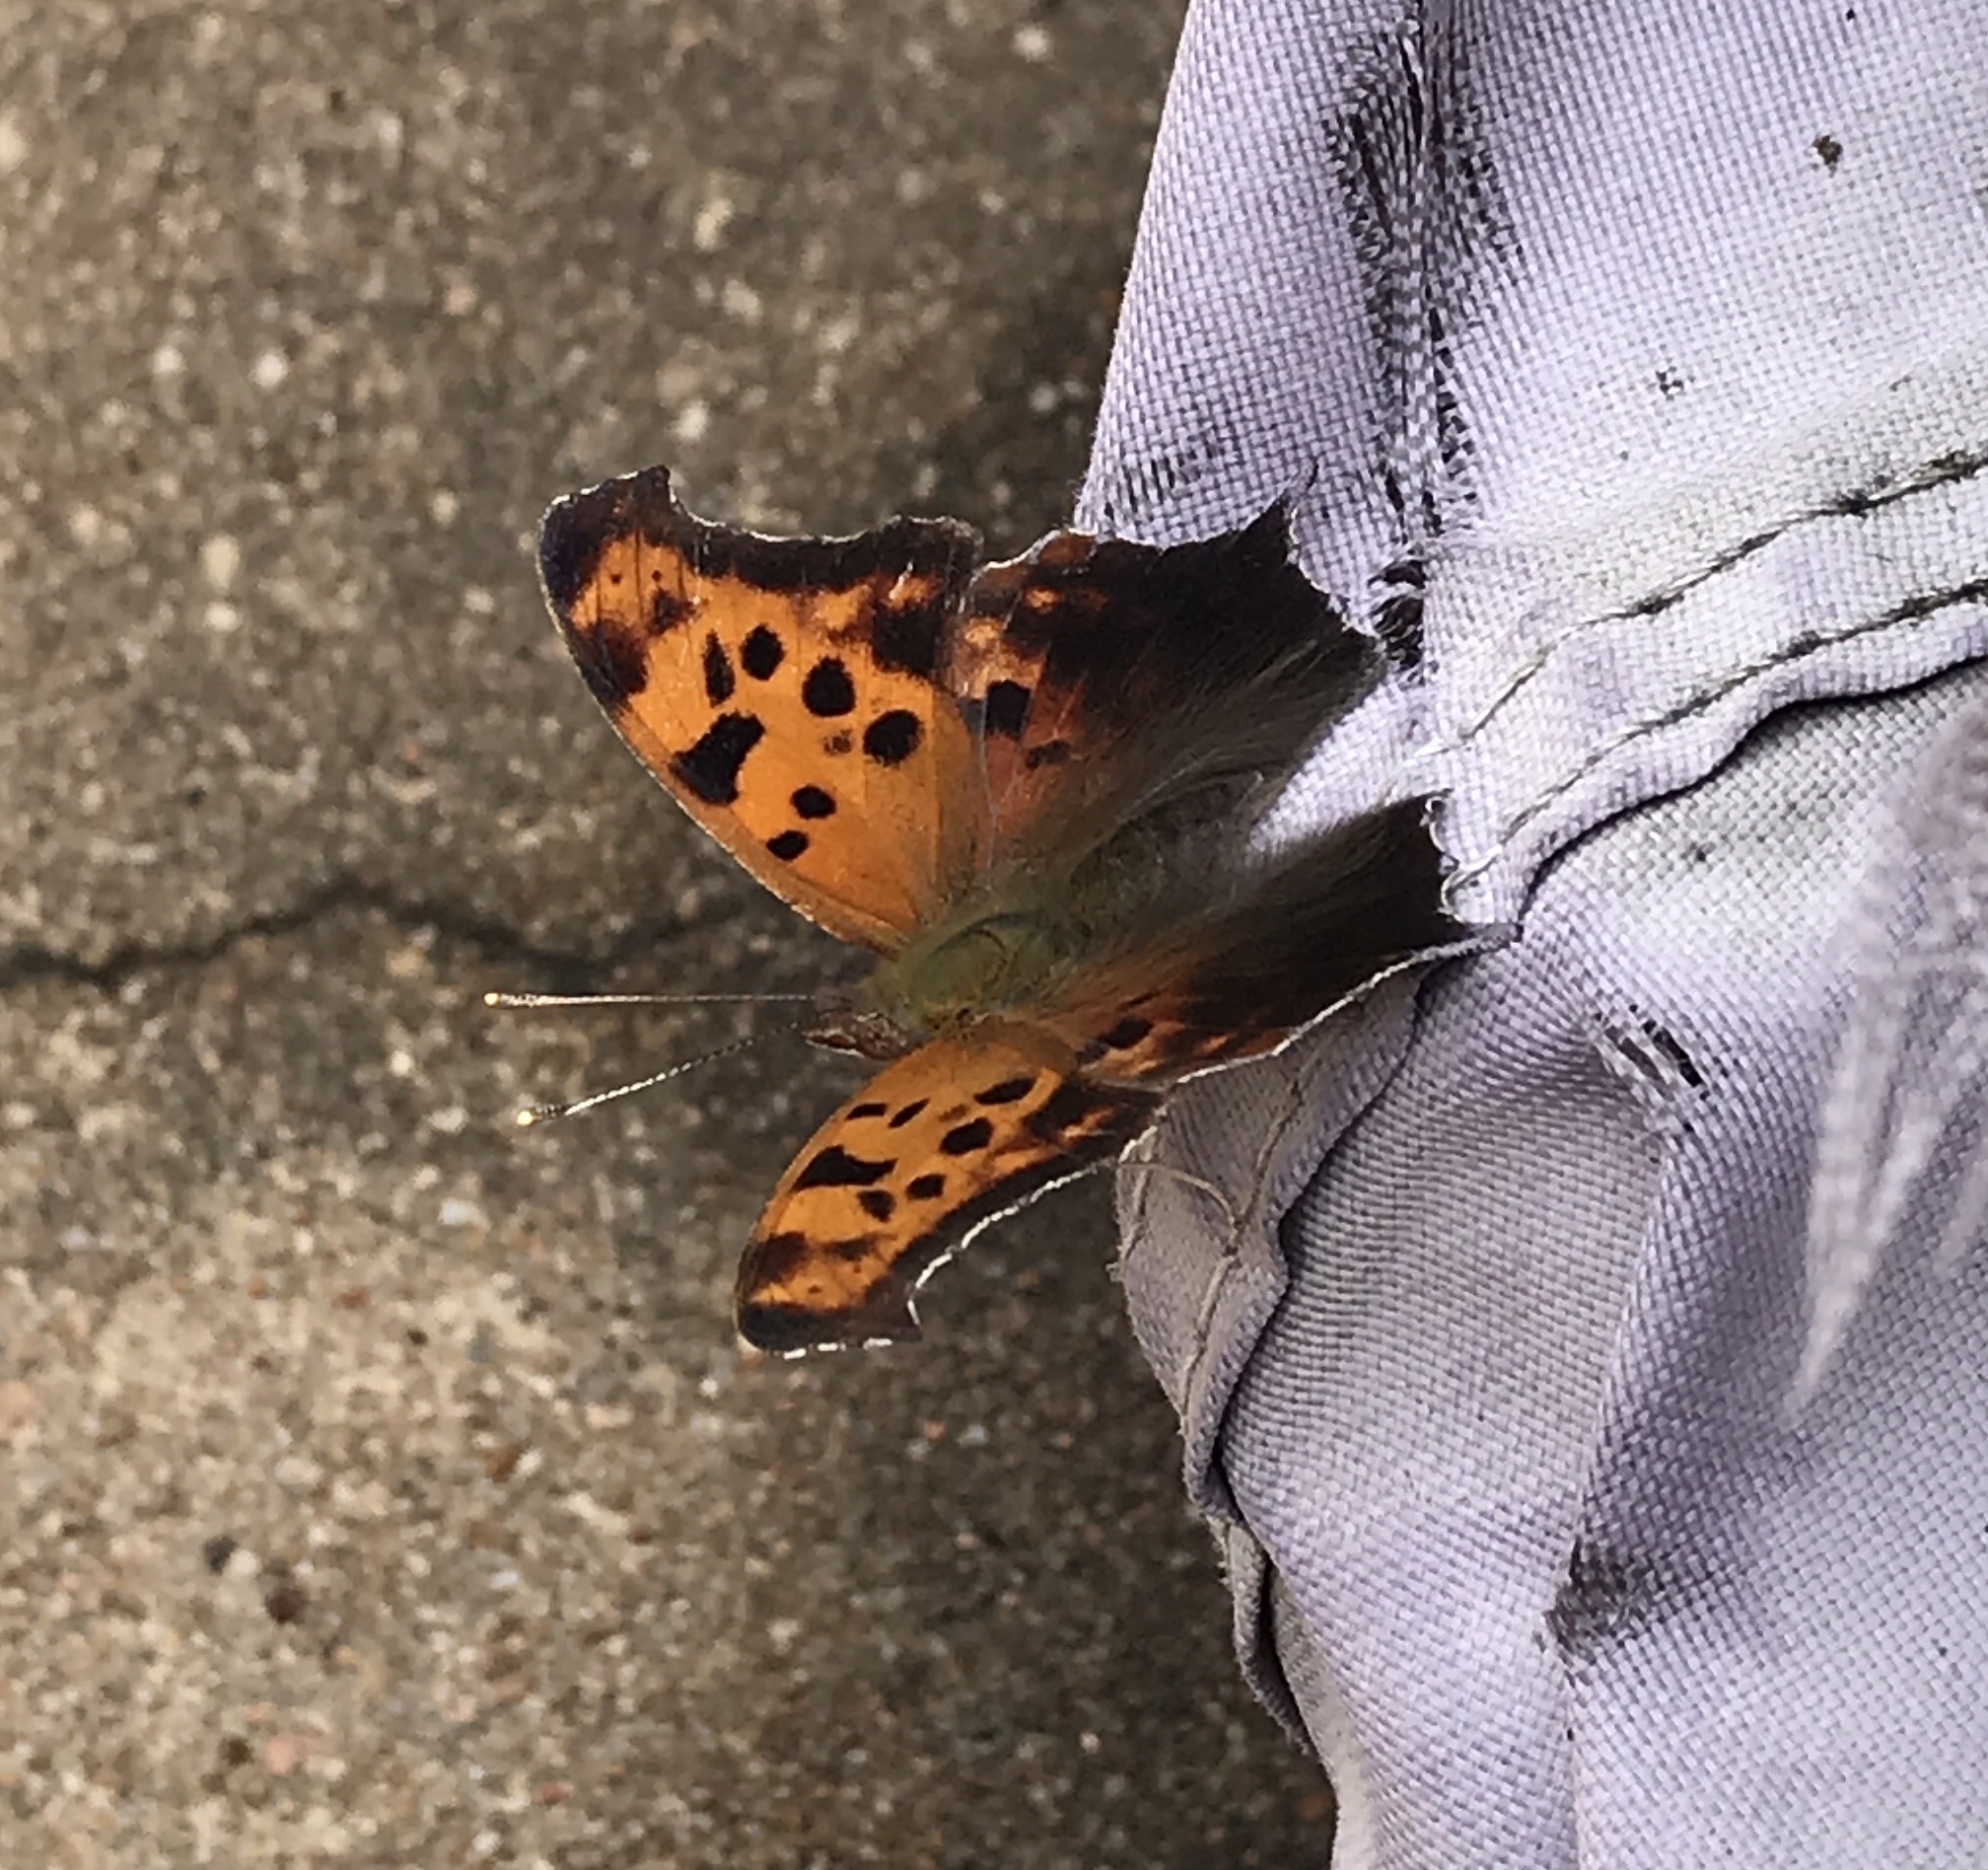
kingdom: Animalia
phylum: Arthropoda
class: Insecta
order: Lepidoptera
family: Nymphalidae
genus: Polygonia
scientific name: Polygonia interrogationis
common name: Question mark
